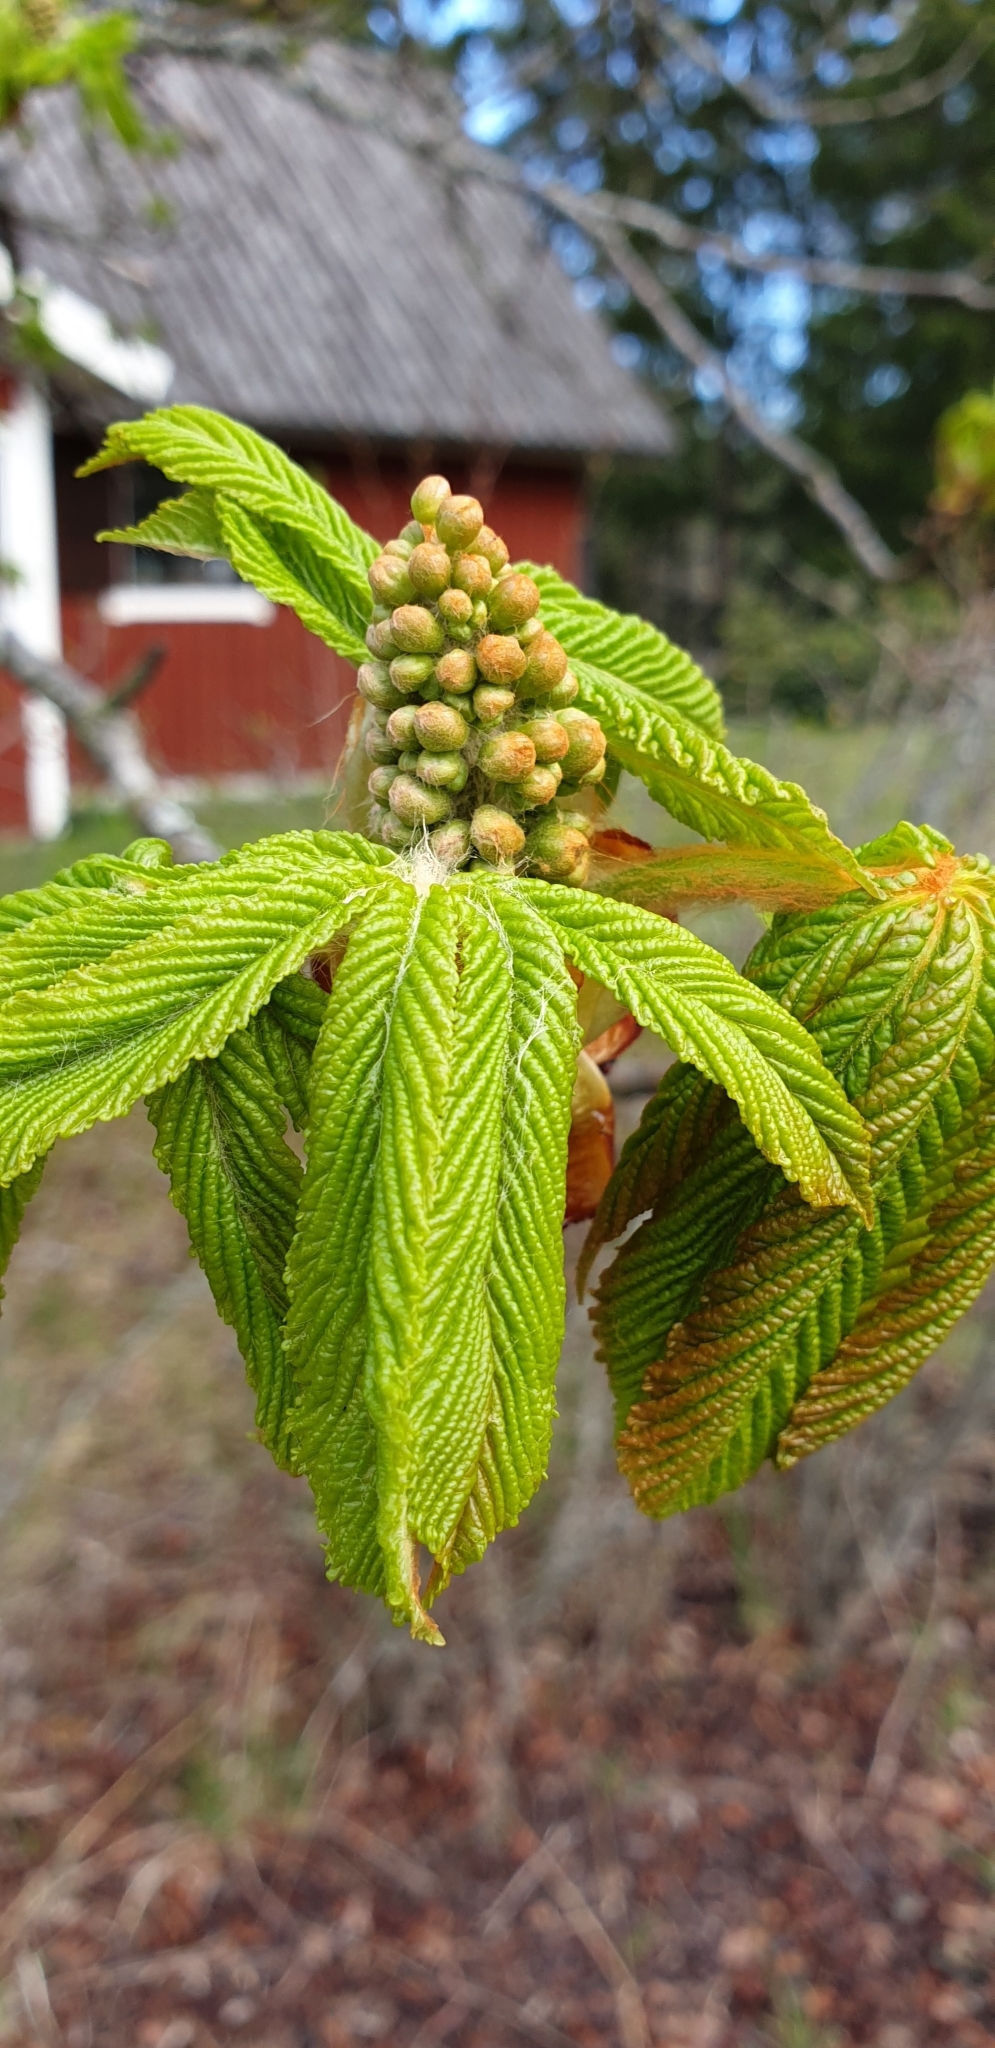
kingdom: Plantae
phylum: Tracheophyta
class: Magnoliopsida
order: Sapindales
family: Sapindaceae
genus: Aesculus
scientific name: Aesculus hippocastanum
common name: Horse-chestnut
